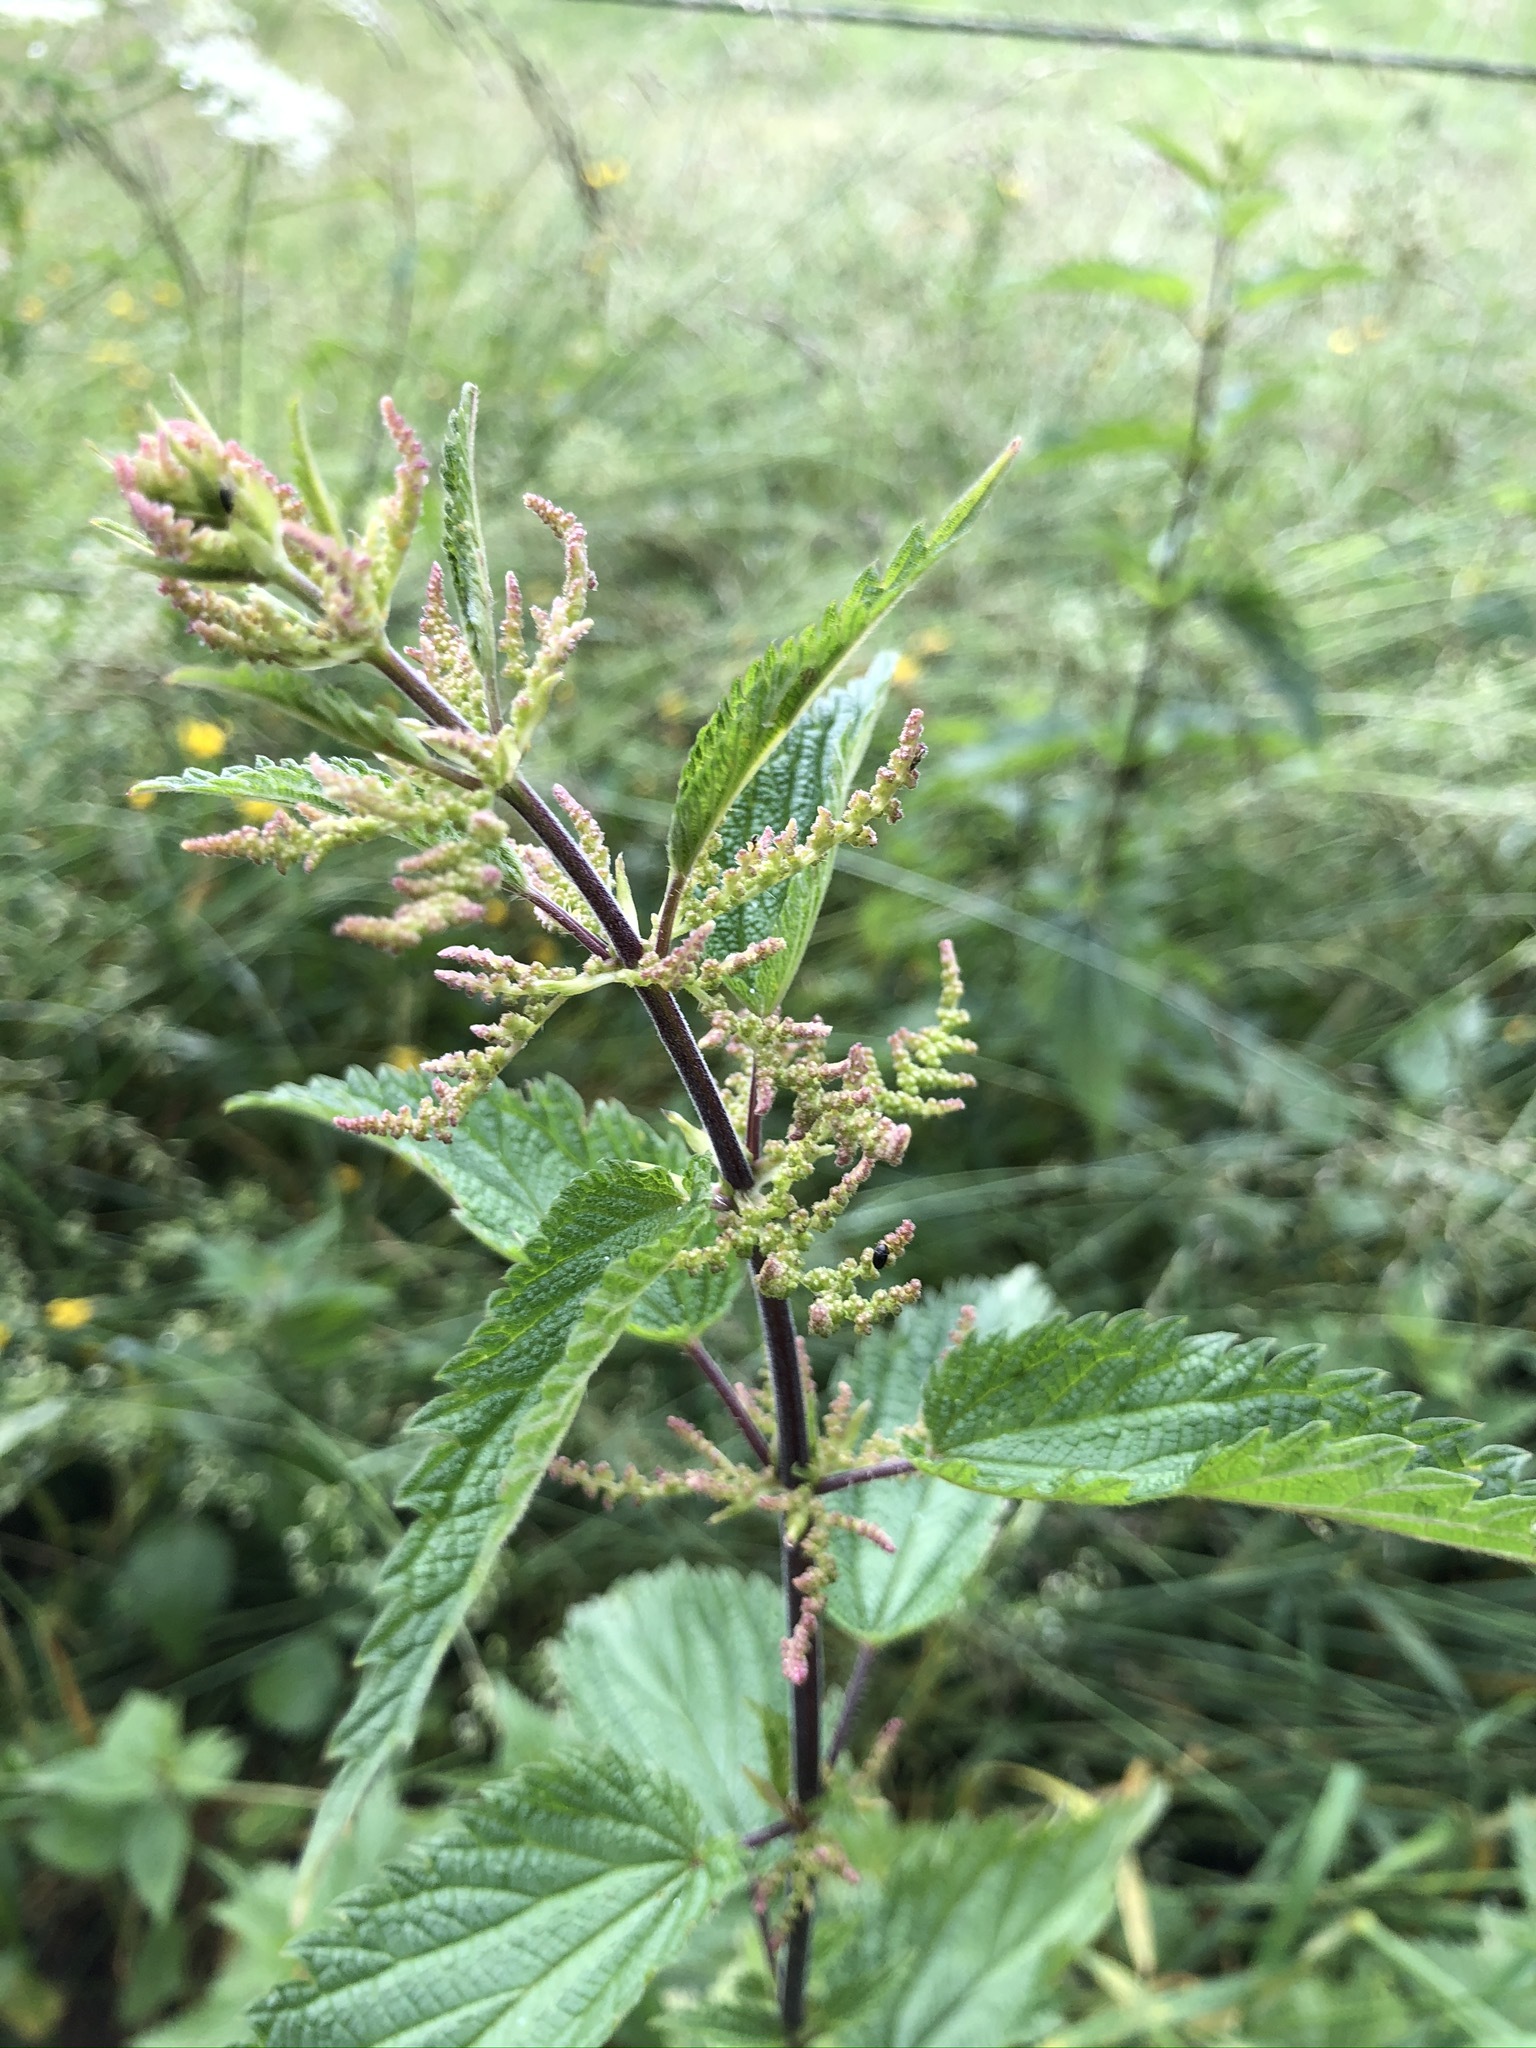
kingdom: Plantae
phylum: Tracheophyta
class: Magnoliopsida
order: Rosales
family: Urticaceae
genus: Urtica
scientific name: Urtica dioica
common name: Common nettle
